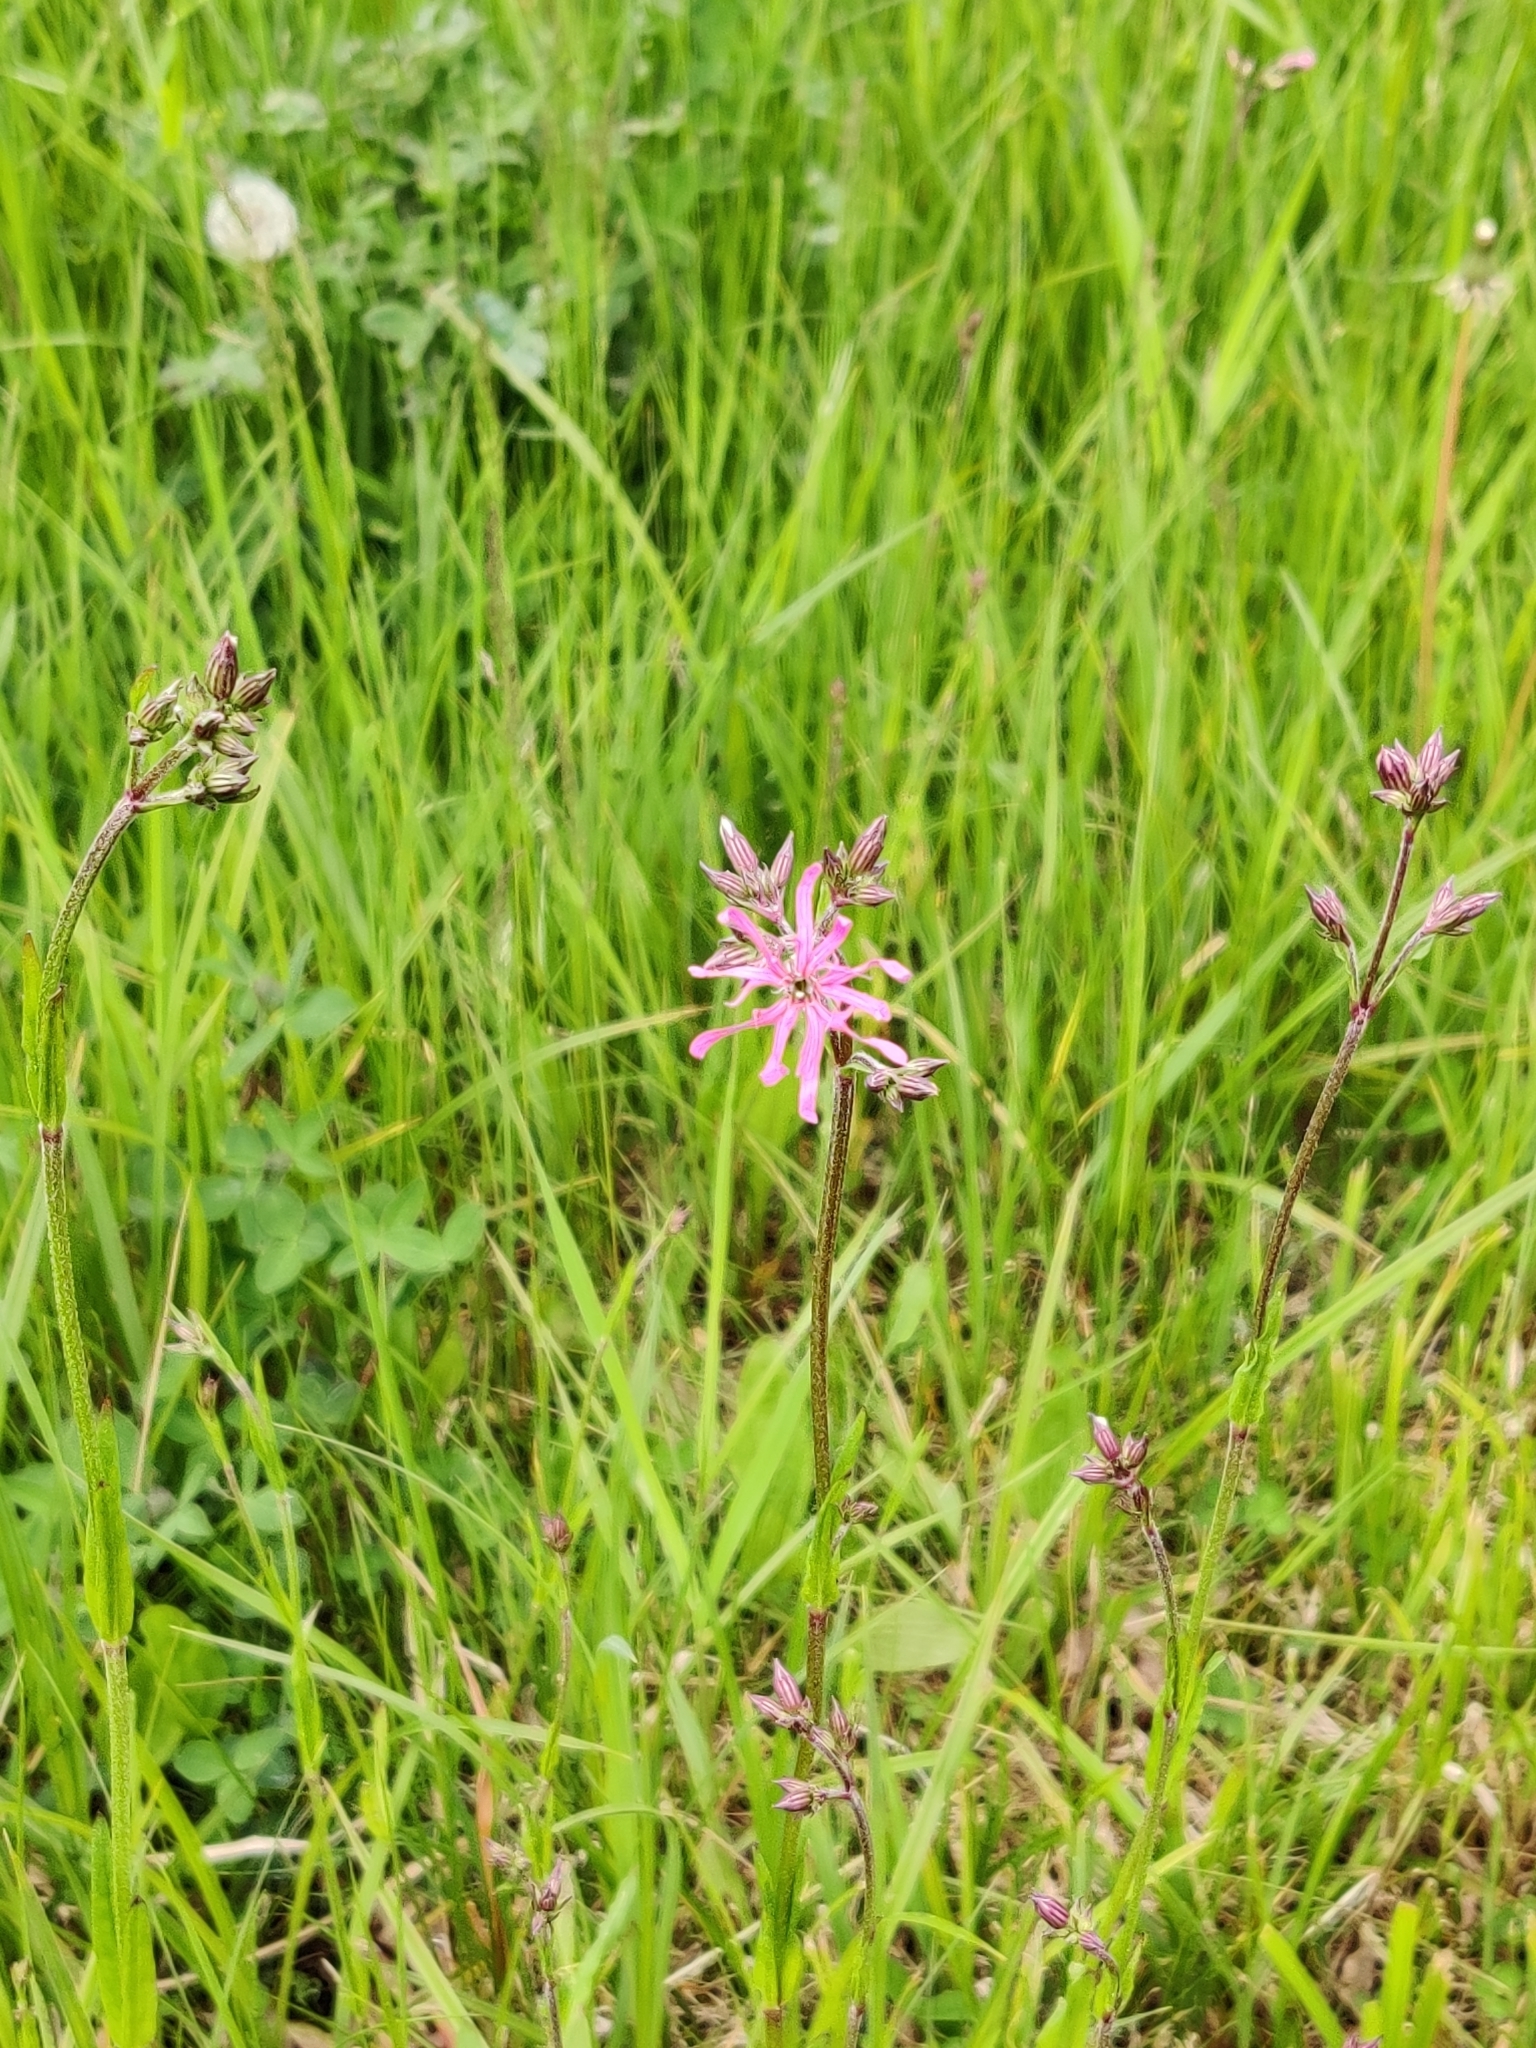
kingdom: Plantae
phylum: Tracheophyta
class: Magnoliopsida
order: Caryophyllales
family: Caryophyllaceae
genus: Silene
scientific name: Silene flos-cuculi
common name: Ragged-robin
